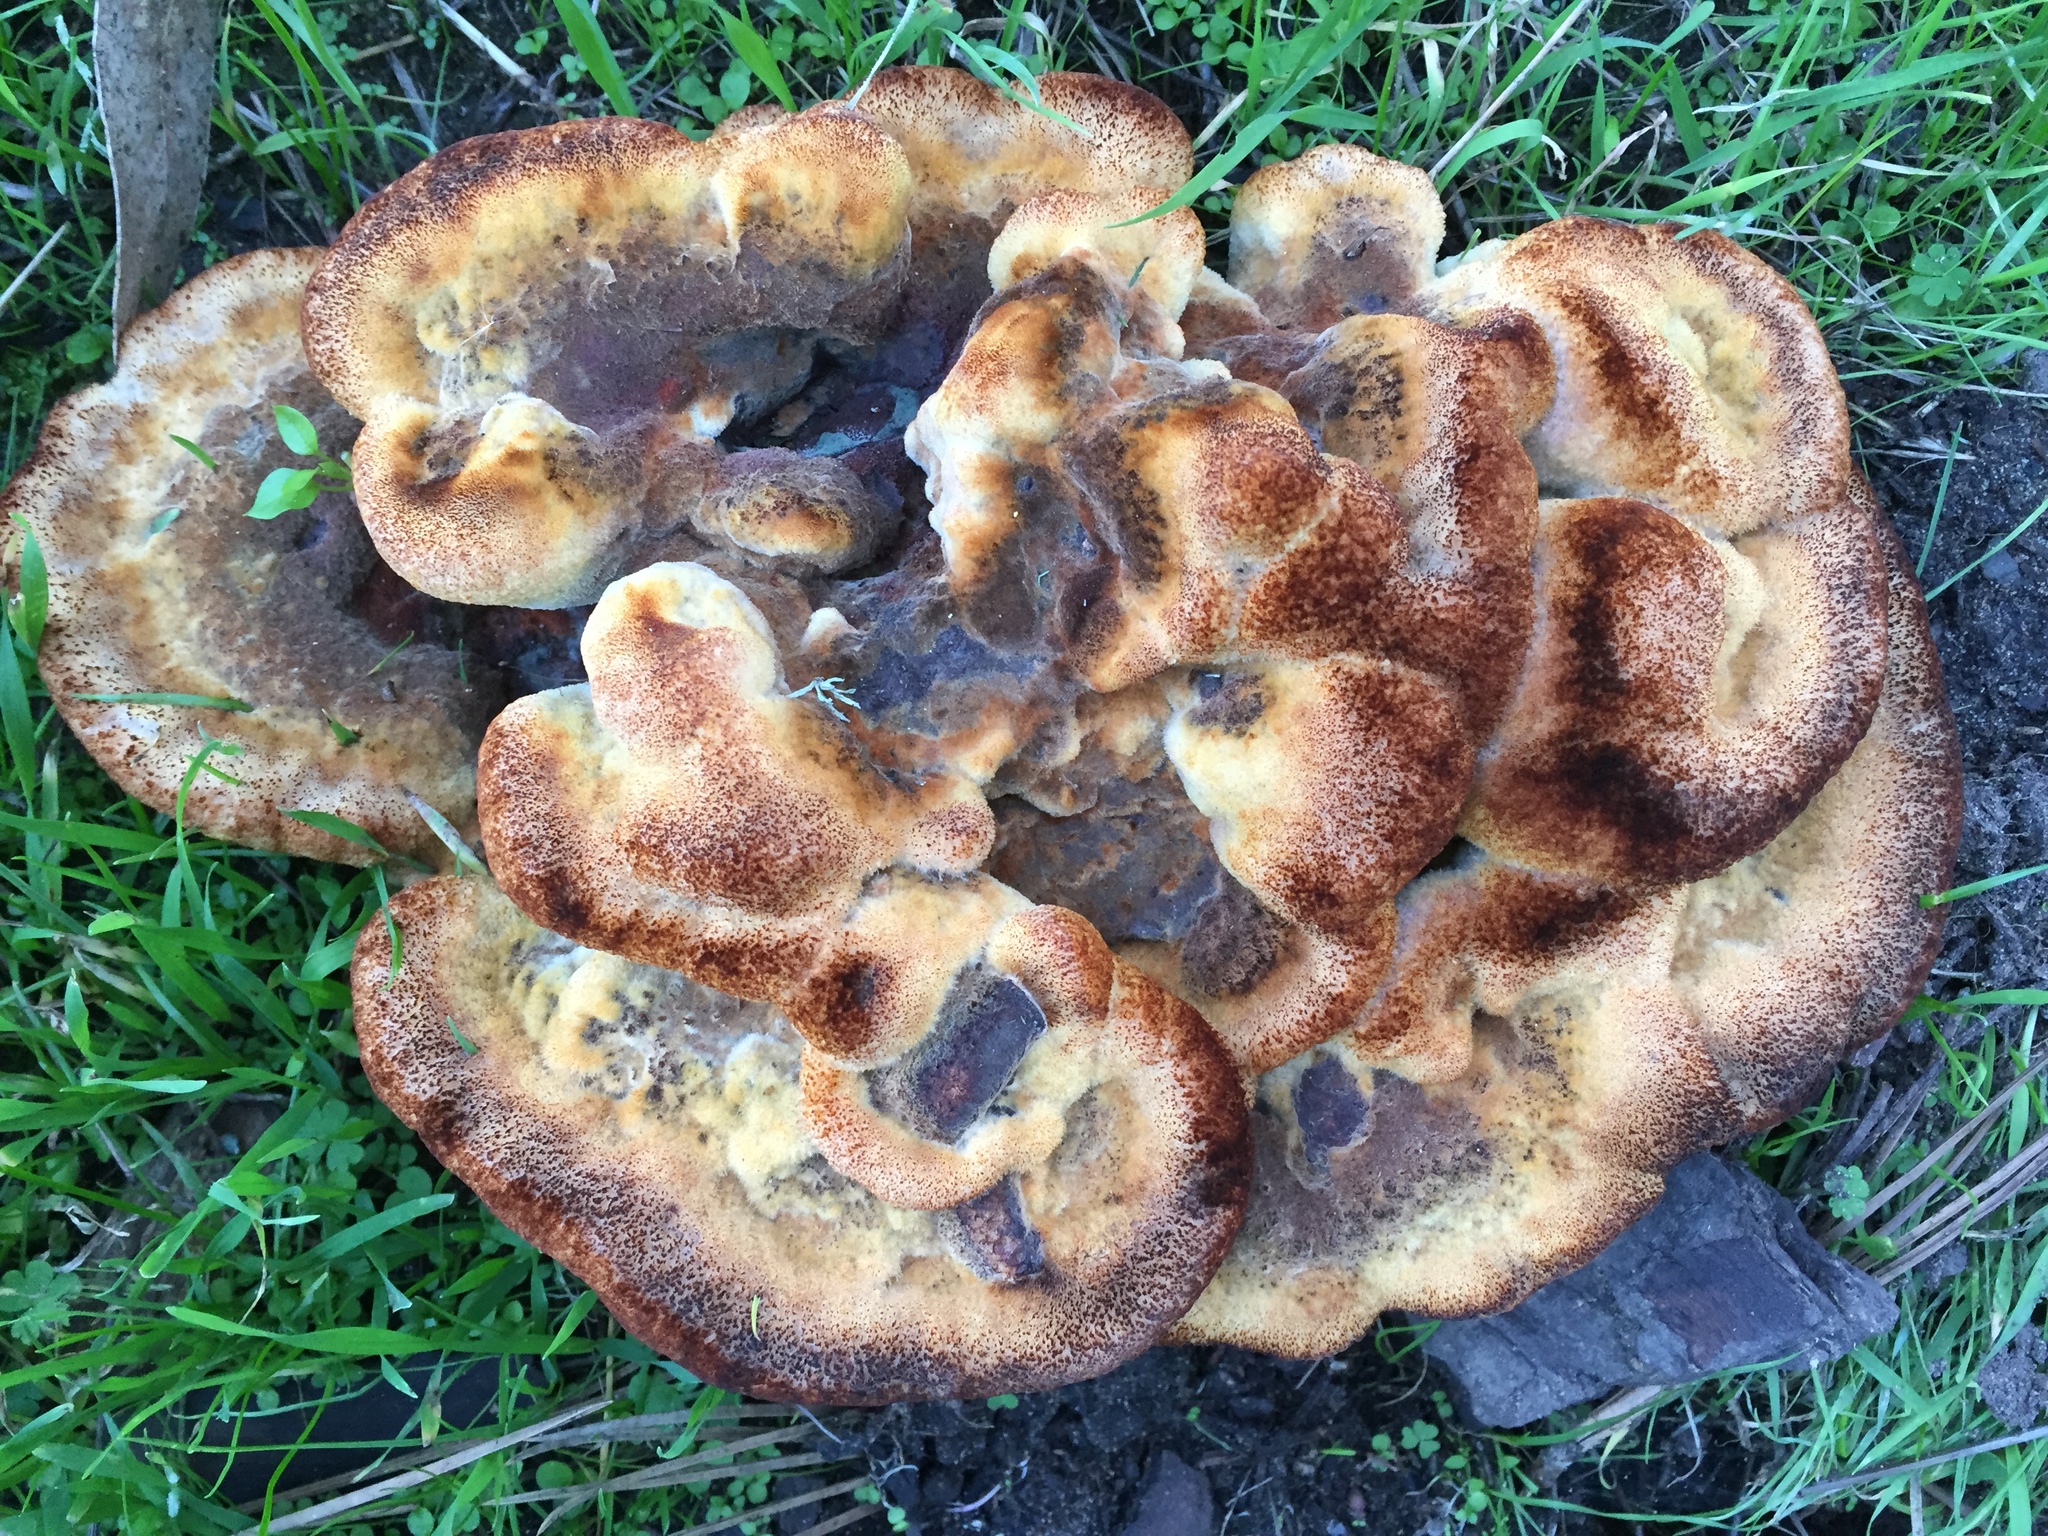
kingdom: Fungi
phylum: Basidiomycota
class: Agaricomycetes
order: Polyporales
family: Laetiporaceae
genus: Phaeolus
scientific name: Phaeolus schweinitzii
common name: Dyer's mazegill
